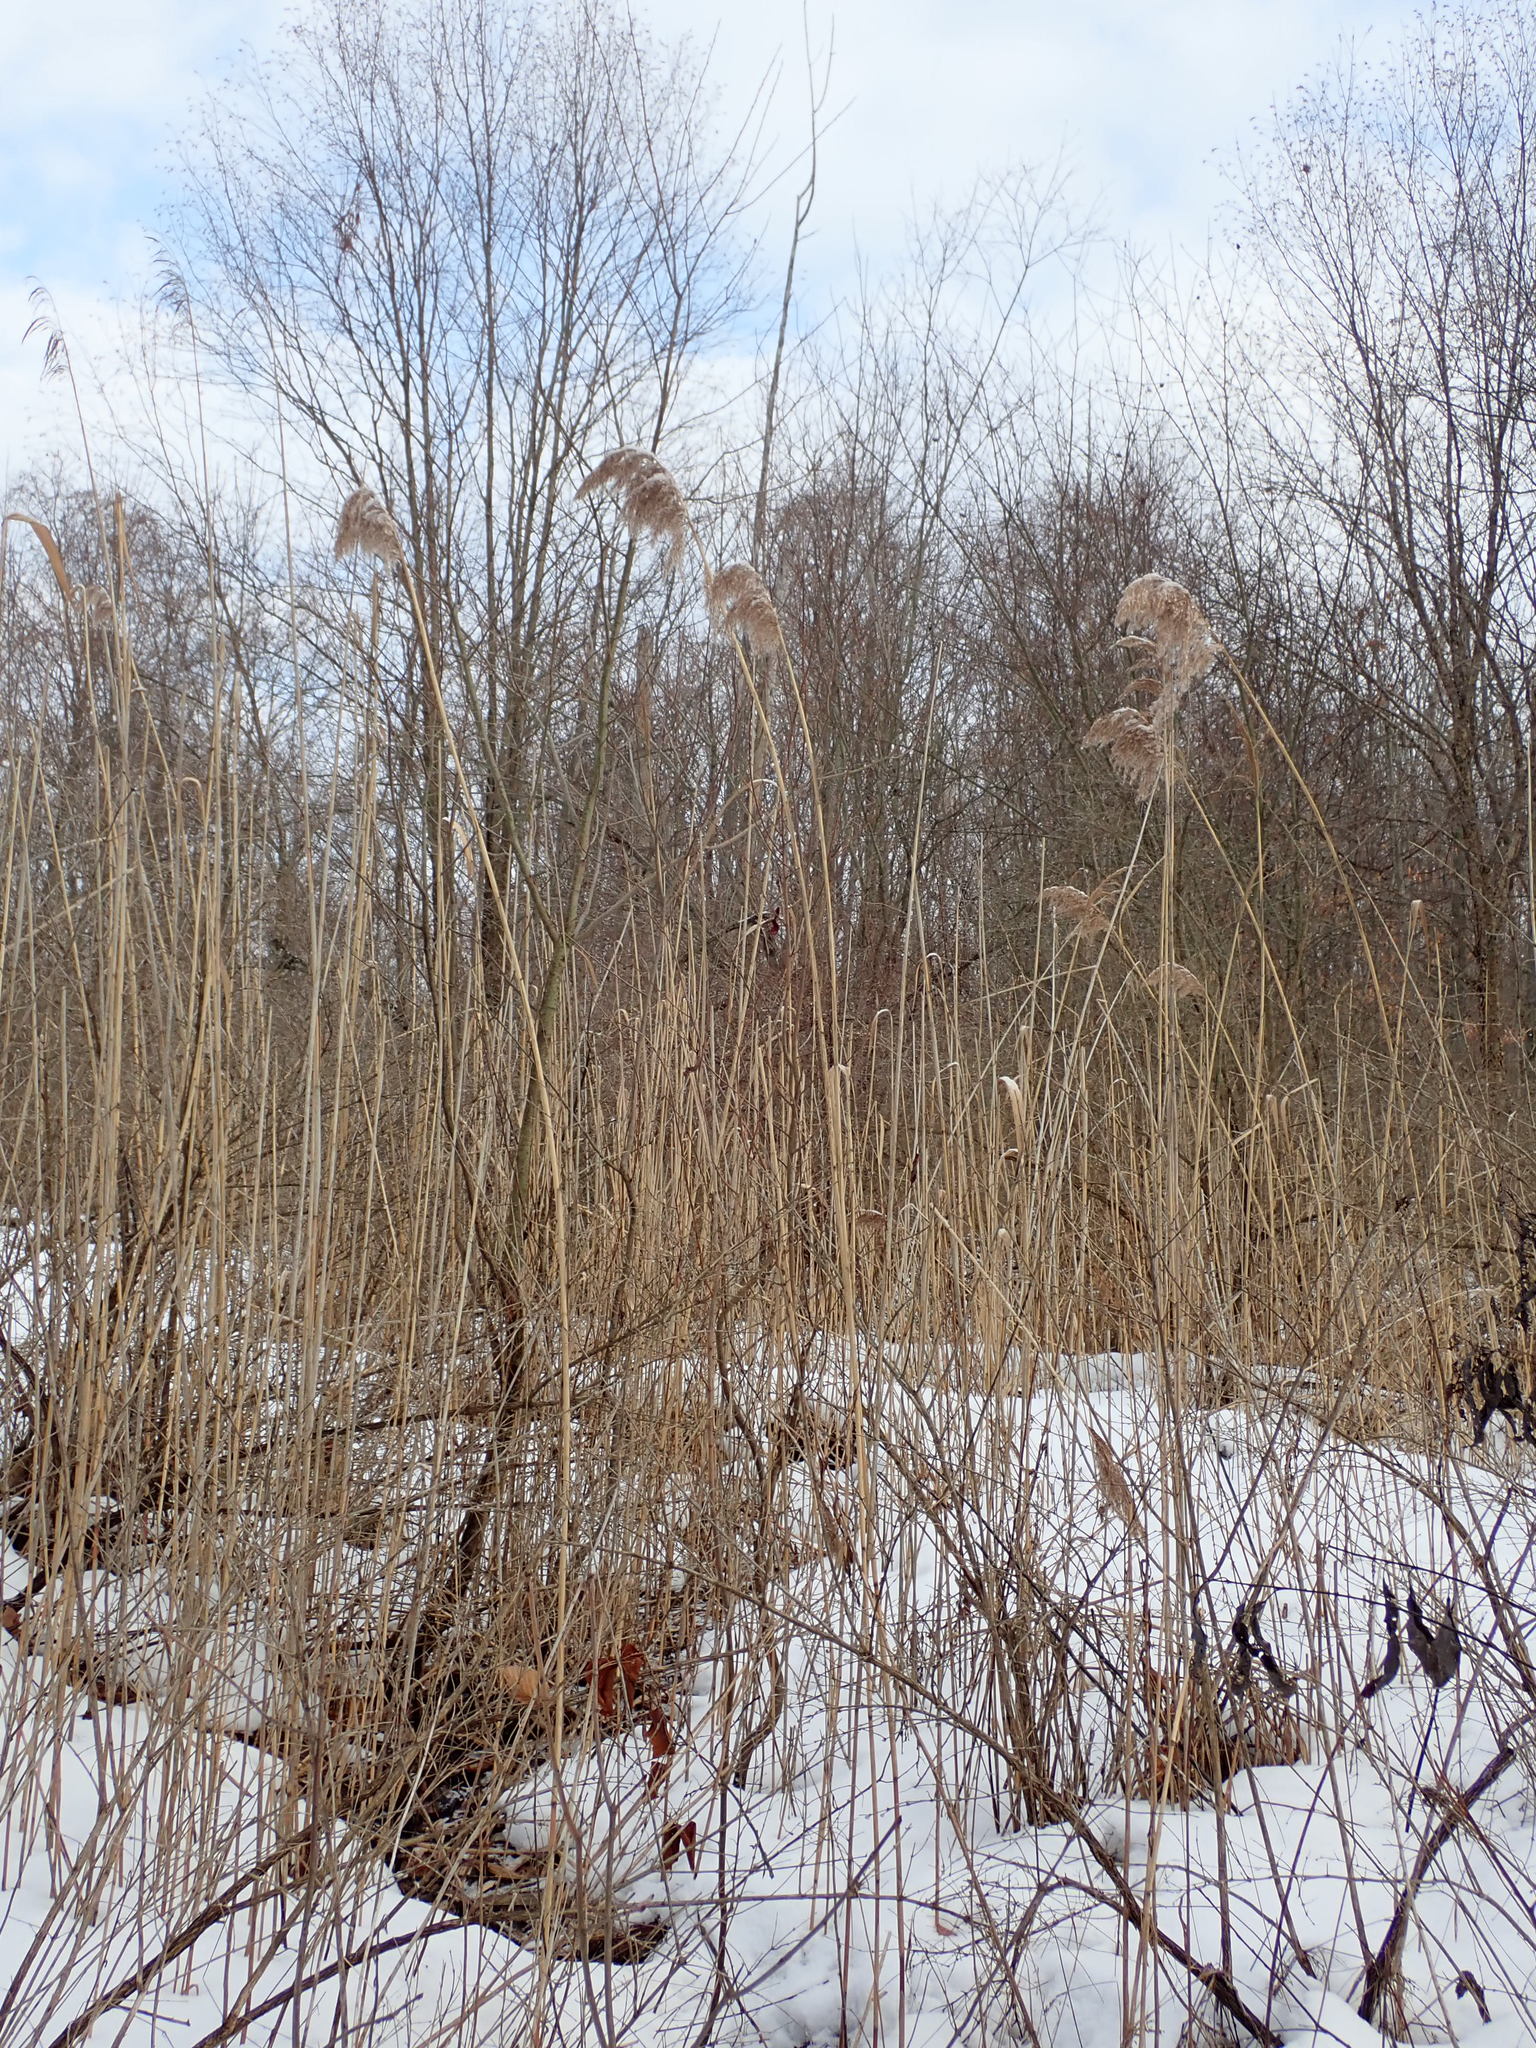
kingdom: Plantae
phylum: Tracheophyta
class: Liliopsida
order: Poales
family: Poaceae
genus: Phragmites
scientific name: Phragmites australis
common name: Common reed
